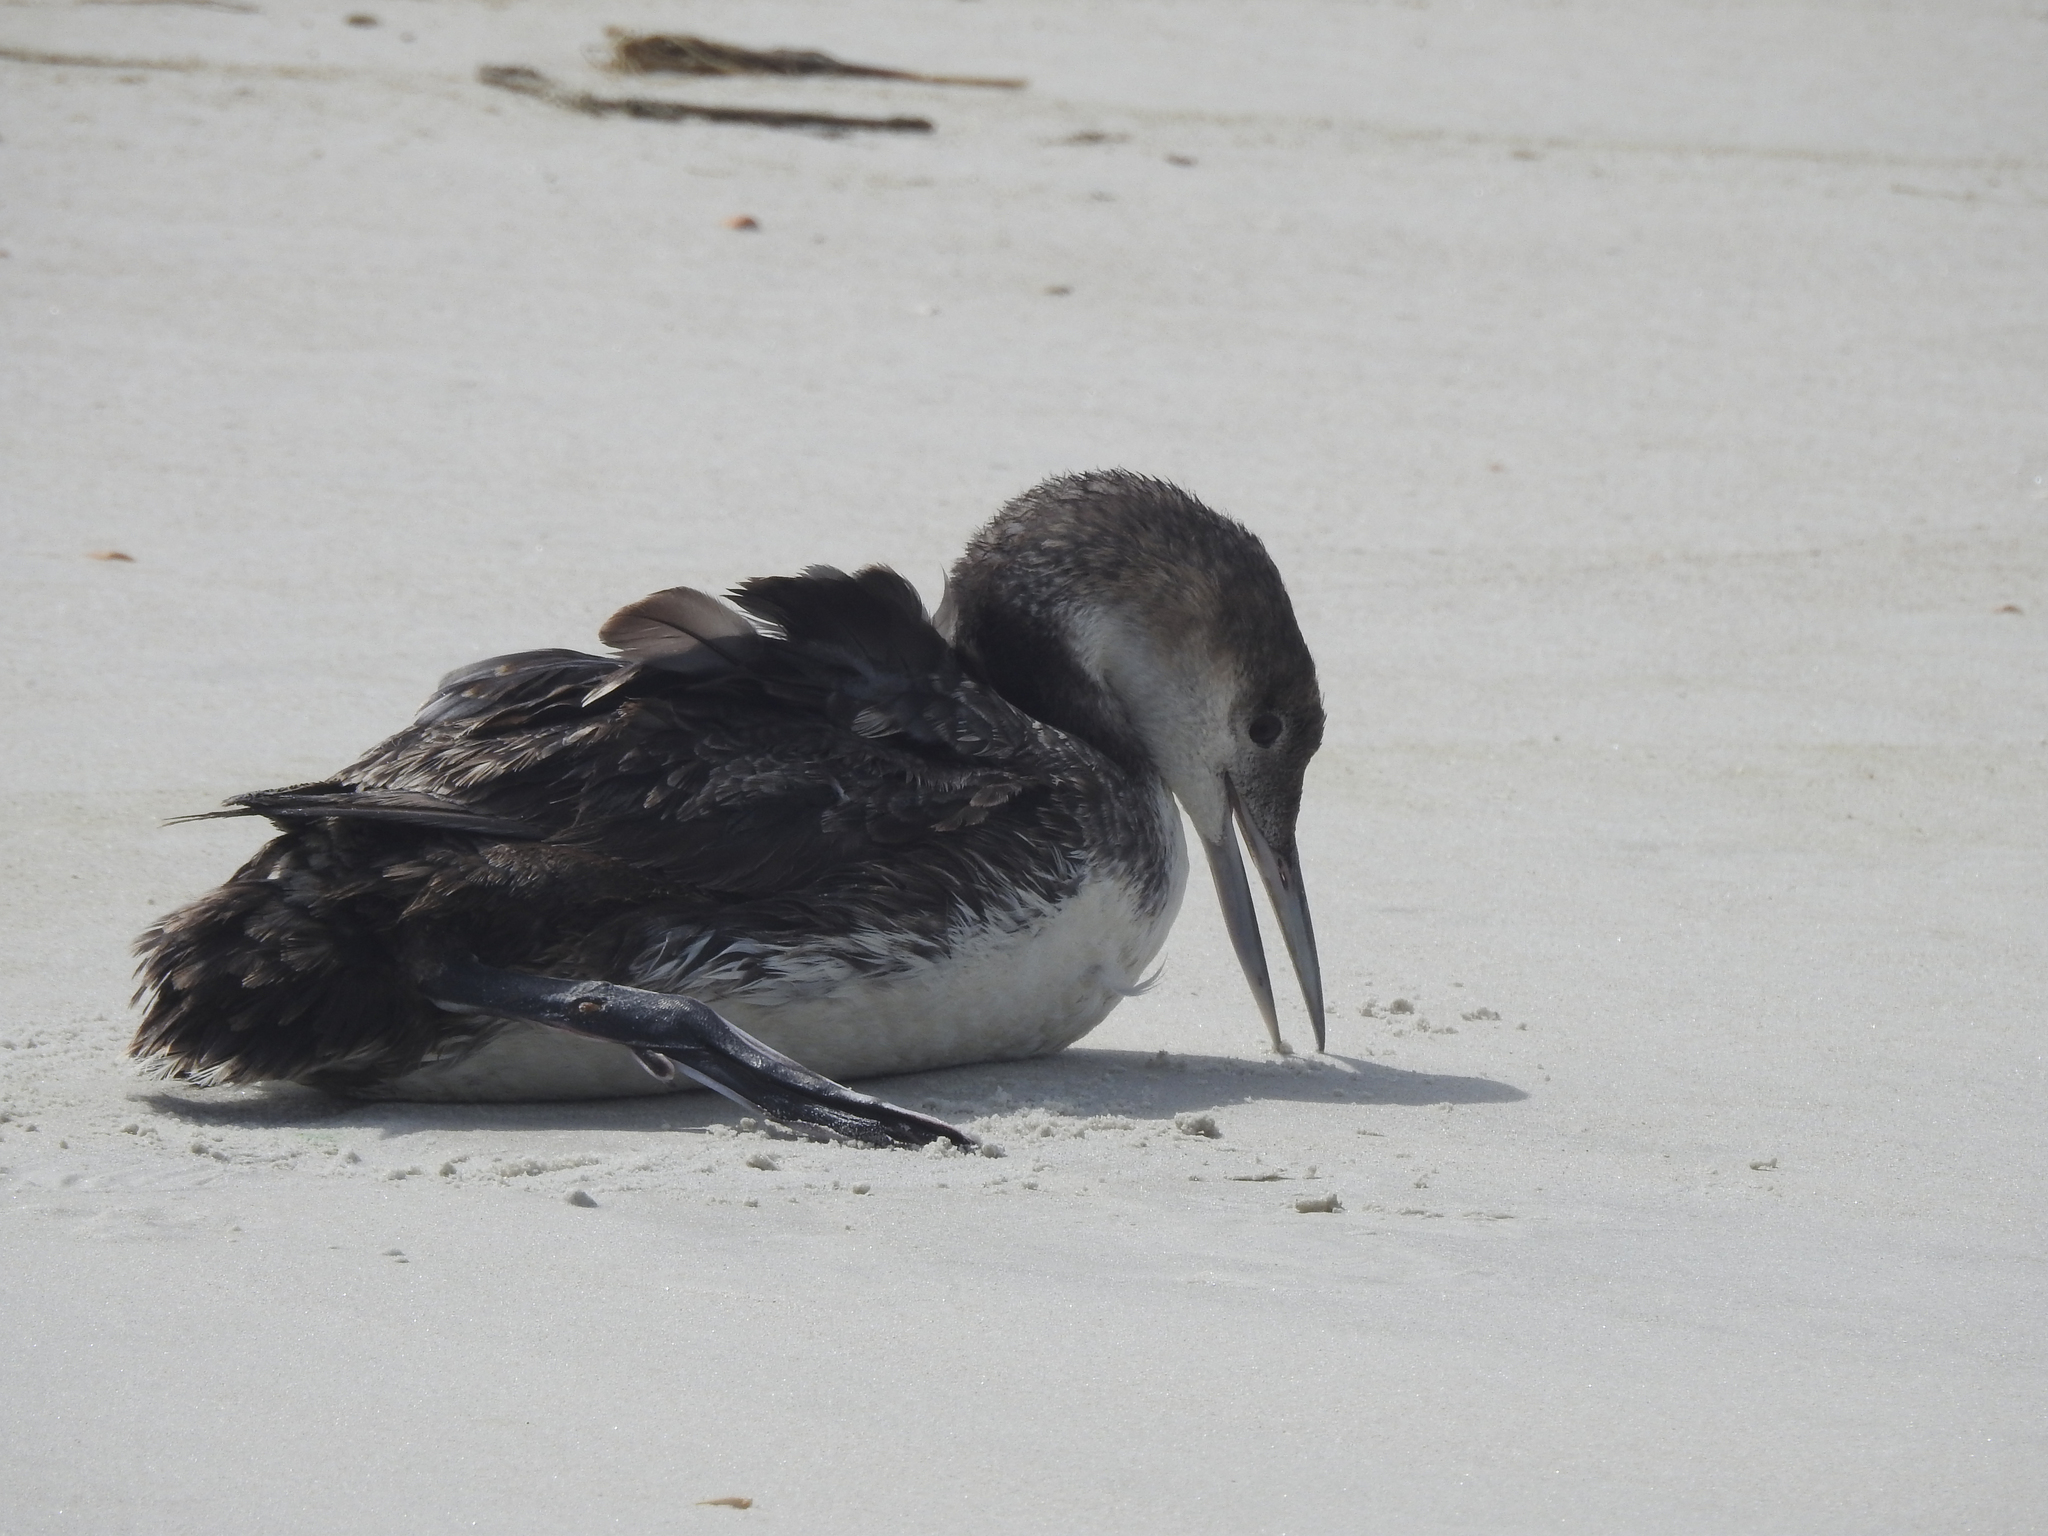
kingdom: Animalia
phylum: Chordata
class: Aves
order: Gaviiformes
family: Gaviidae
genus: Gavia
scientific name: Gavia immer
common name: Common loon
